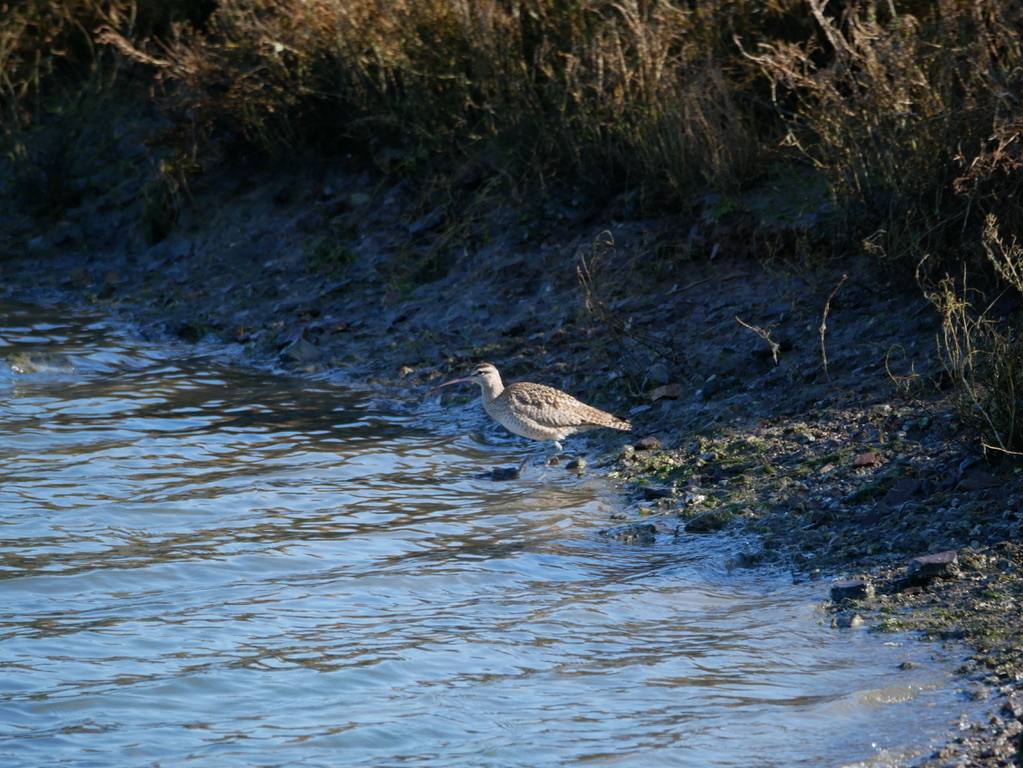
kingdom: Animalia
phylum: Chordata
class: Aves
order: Charadriiformes
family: Scolopacidae
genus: Numenius
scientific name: Numenius phaeopus
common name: Whimbrel
